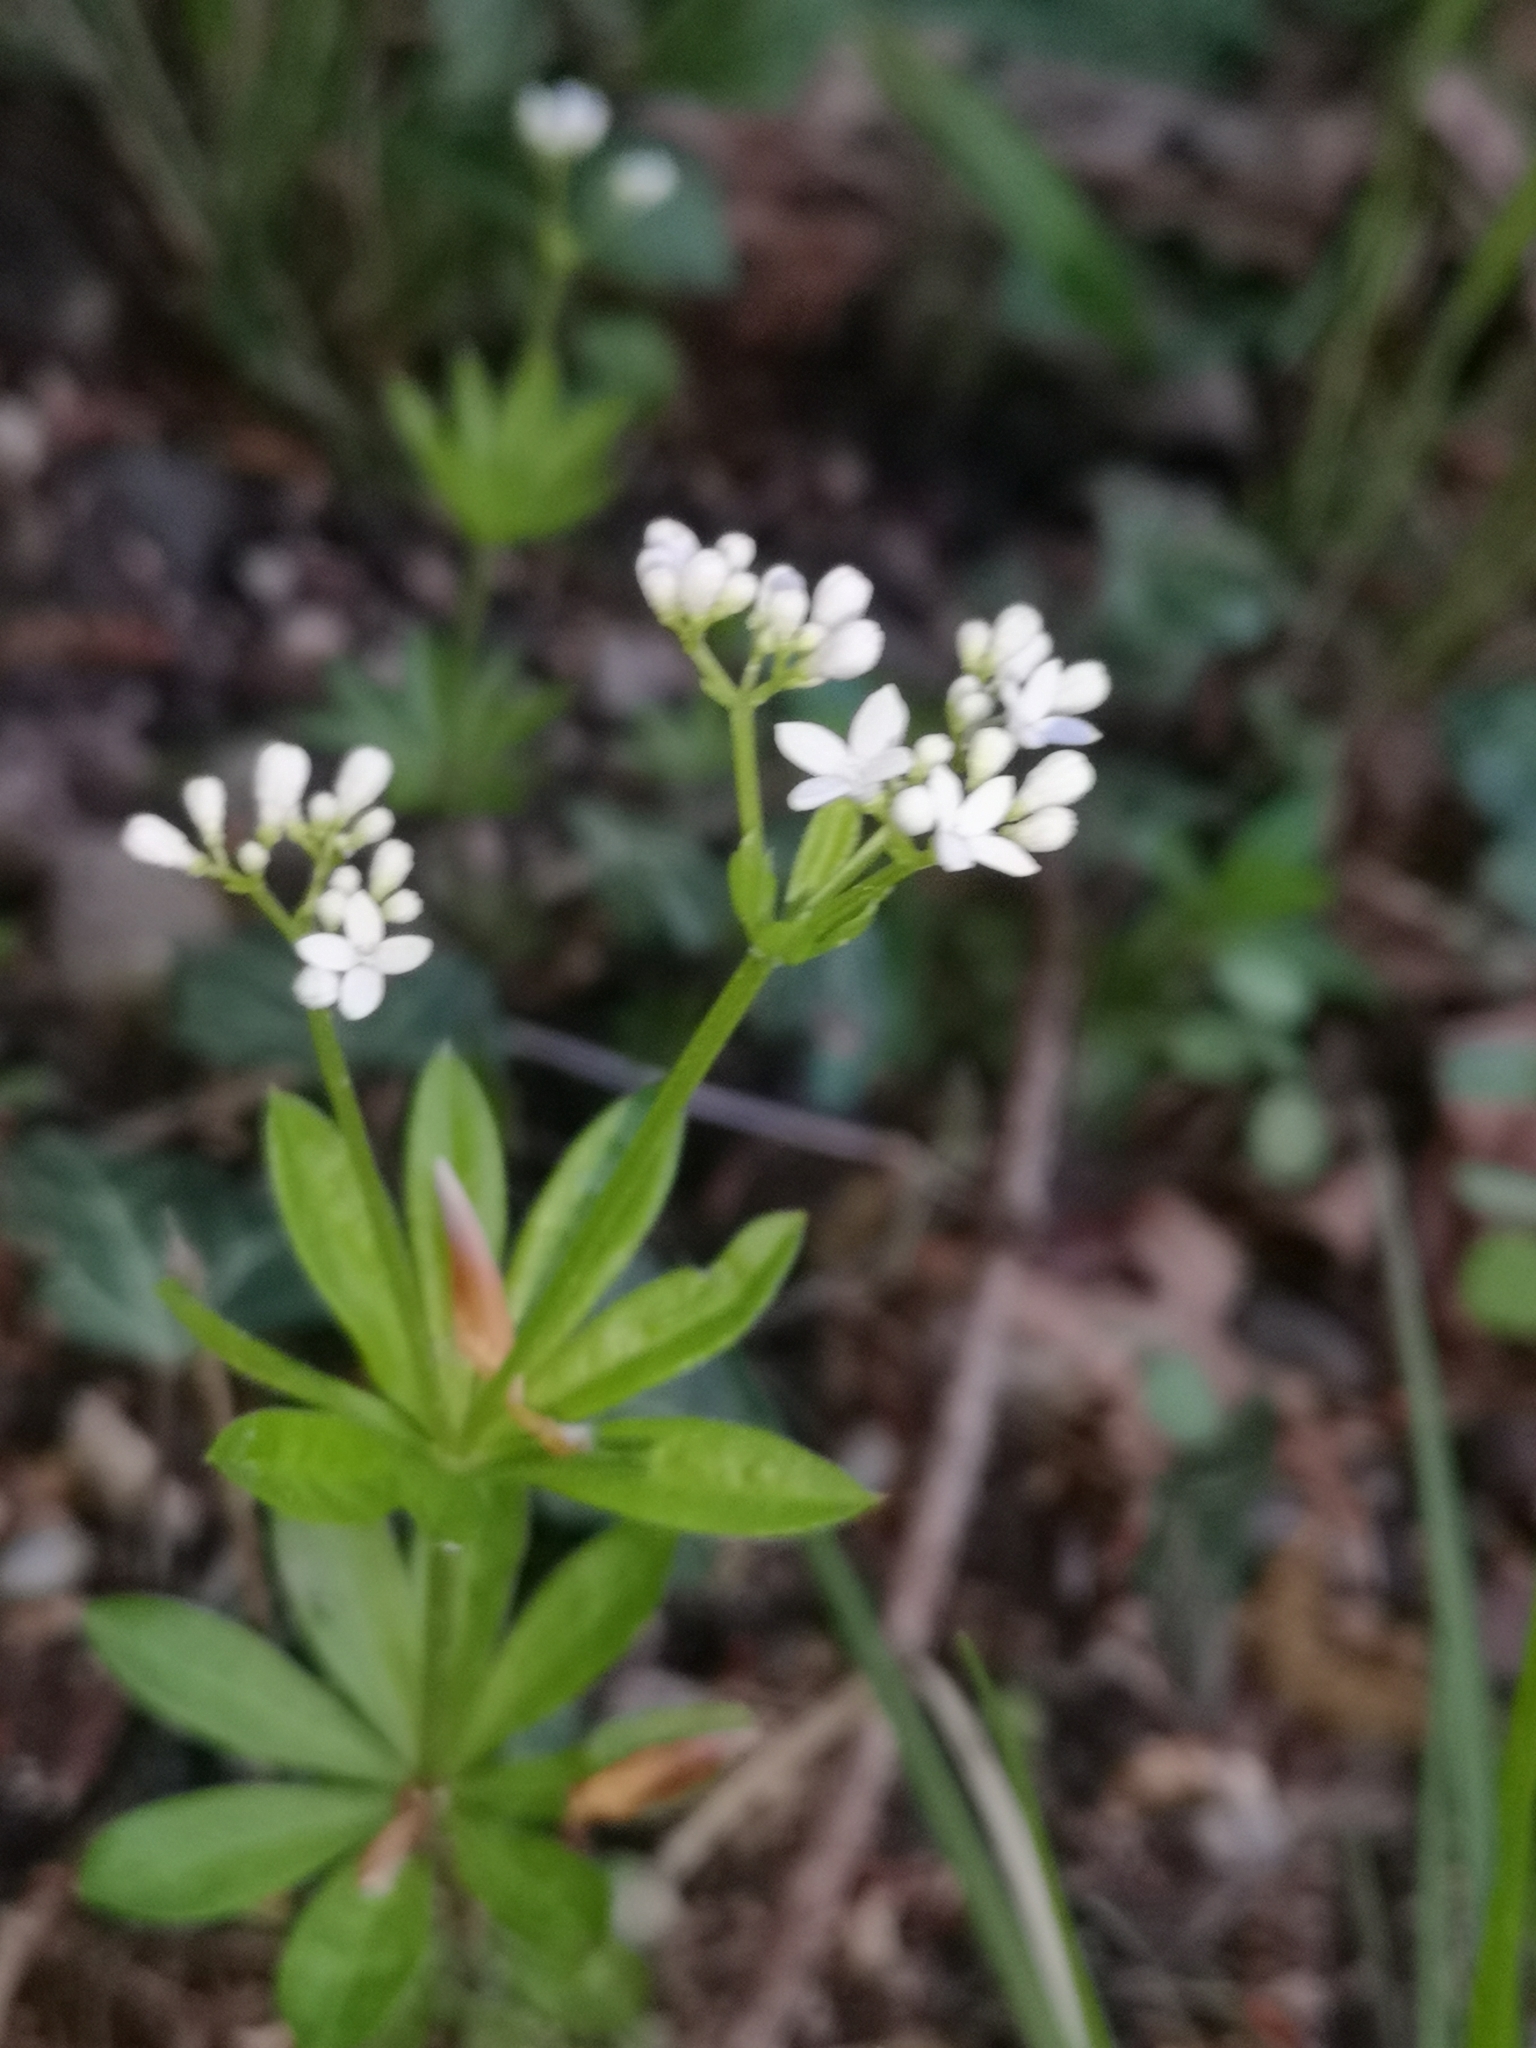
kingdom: Plantae
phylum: Tracheophyta
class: Magnoliopsida
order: Gentianales
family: Rubiaceae
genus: Galium
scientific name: Galium odoratum
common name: Sweet woodruff
